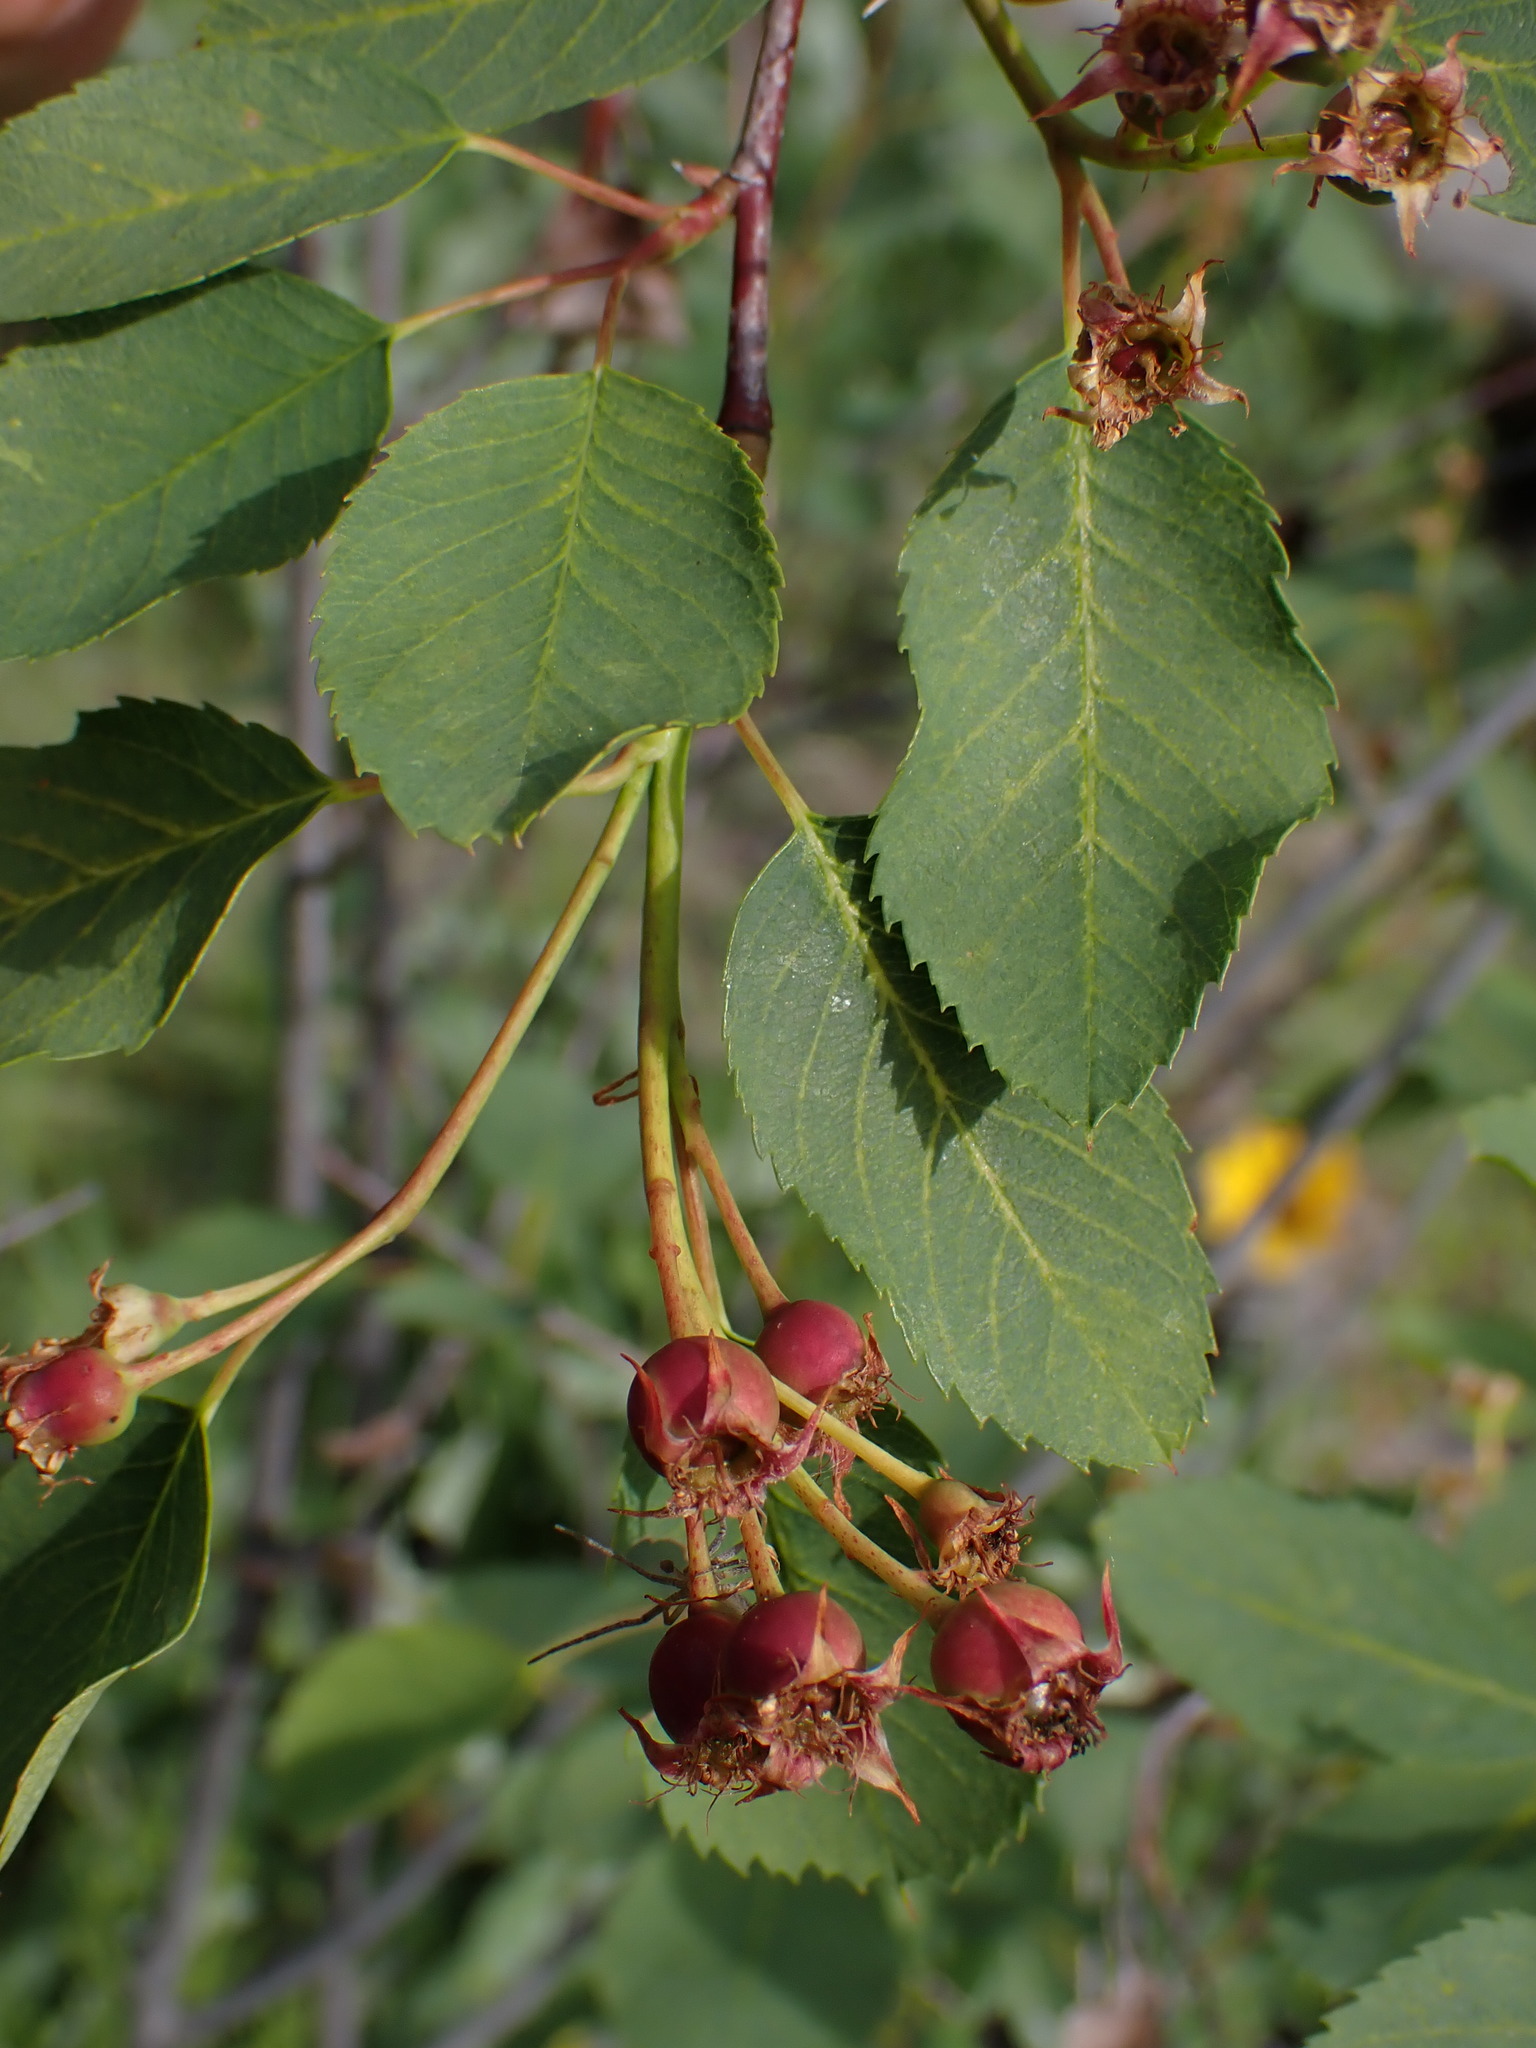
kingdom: Plantae
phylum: Tracheophyta
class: Magnoliopsida
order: Rosales
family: Rosaceae
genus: Amelanchier
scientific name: Amelanchier alnifolia
